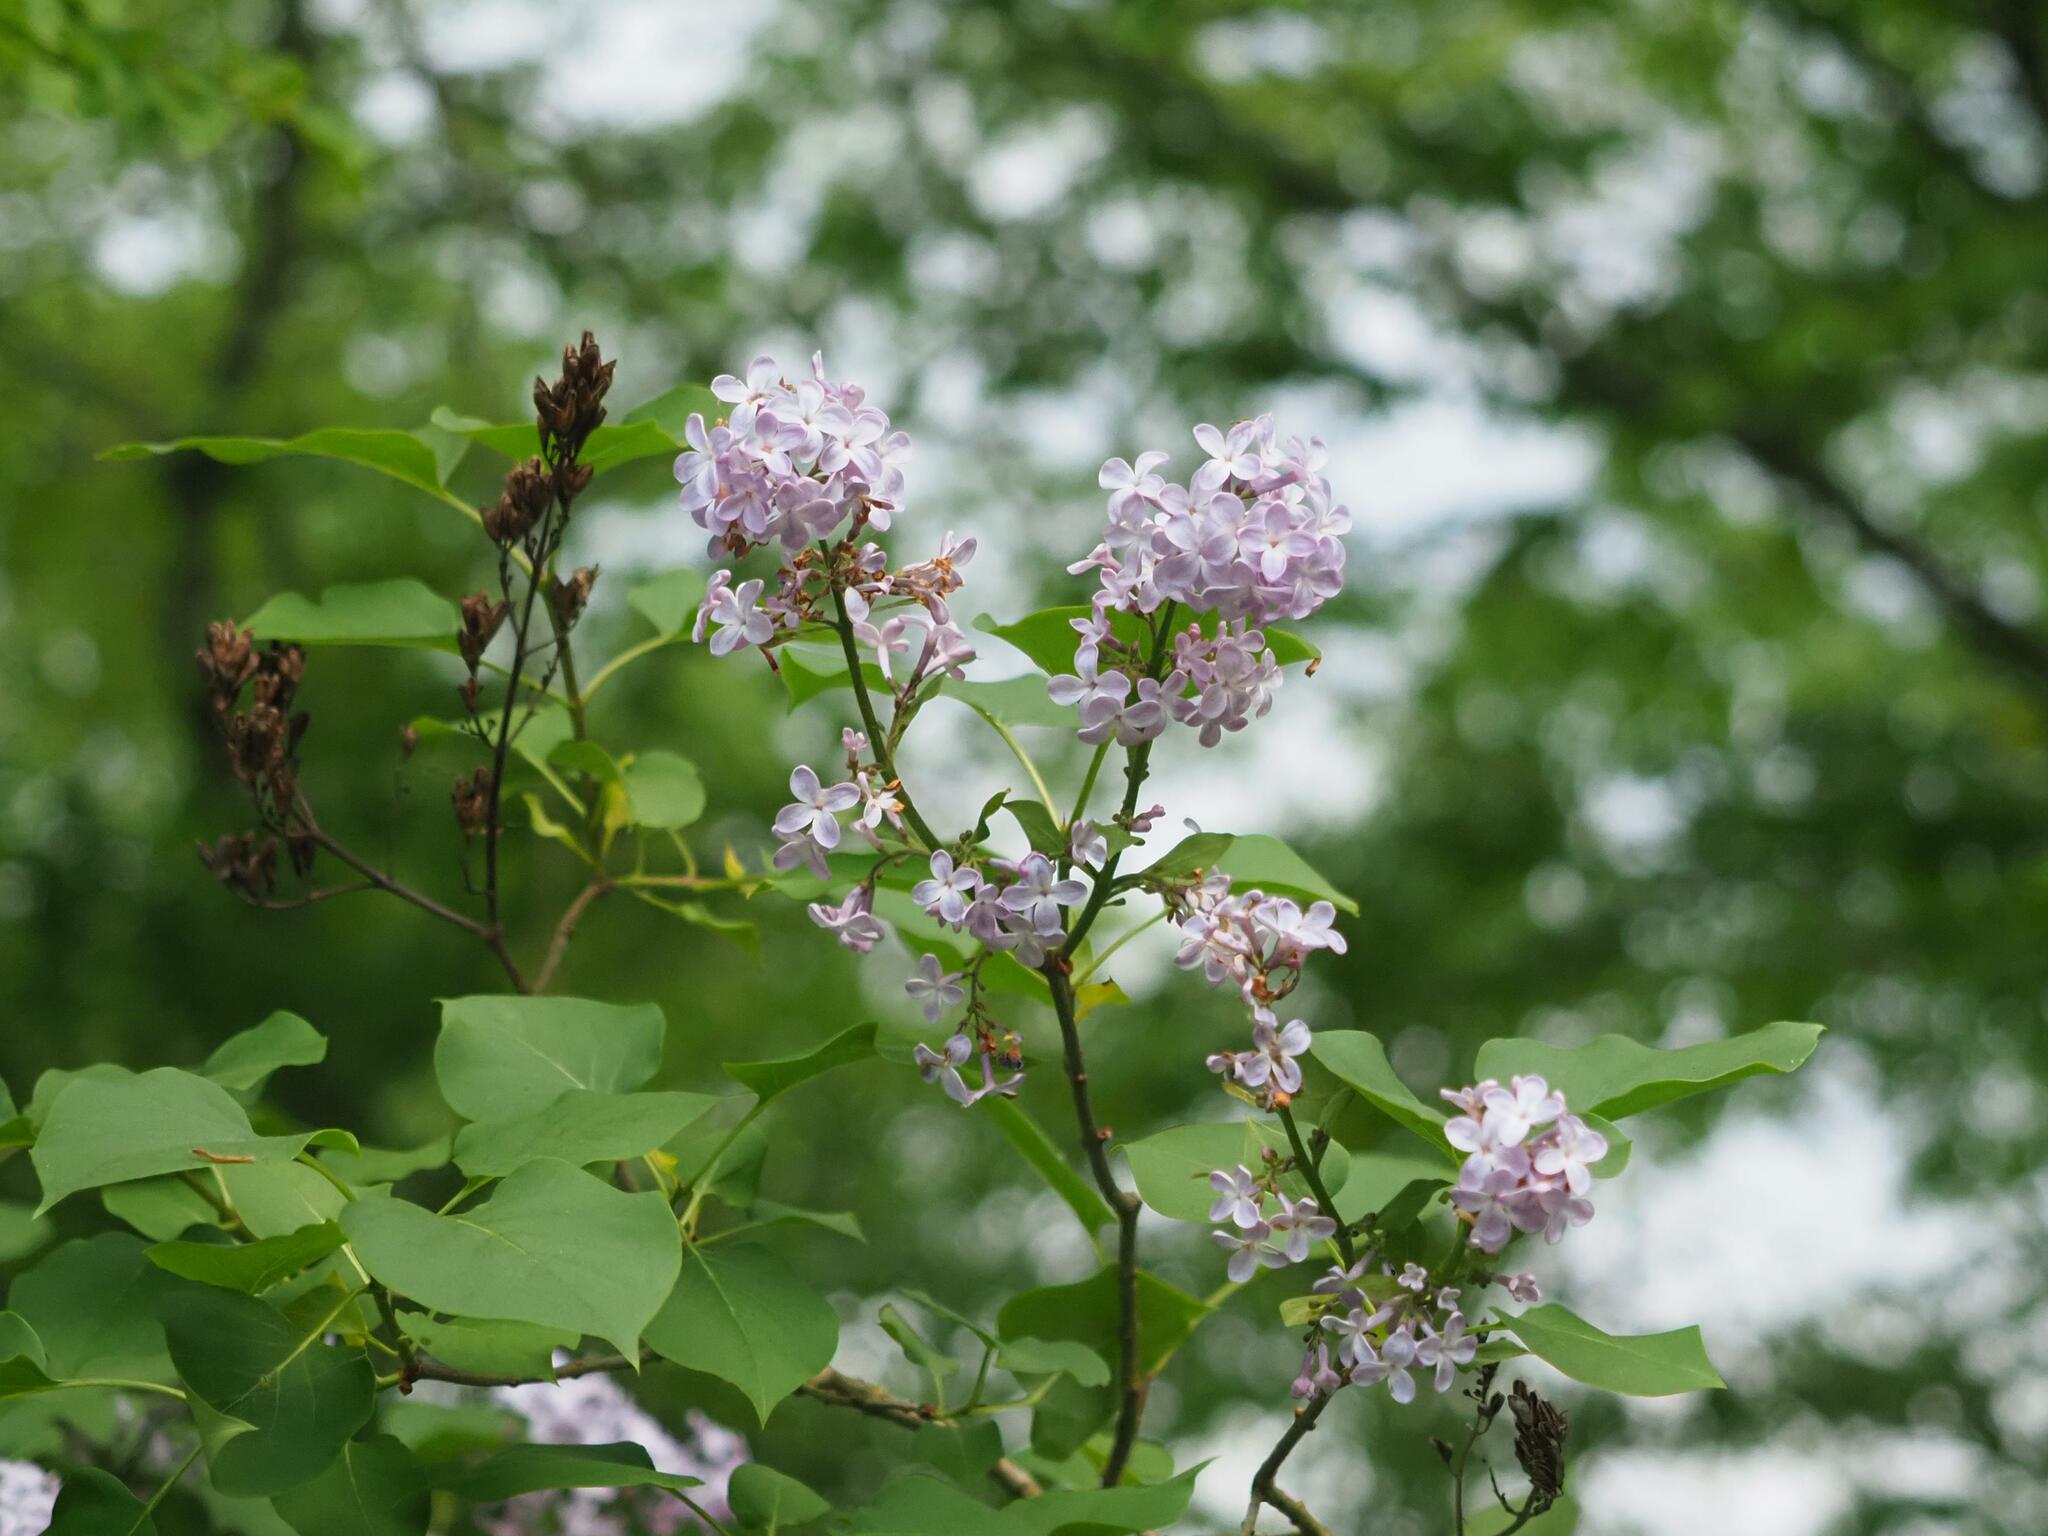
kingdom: Plantae
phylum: Tracheophyta
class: Magnoliopsida
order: Lamiales
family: Oleaceae
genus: Syringa
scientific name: Syringa vulgaris
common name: Common lilac
